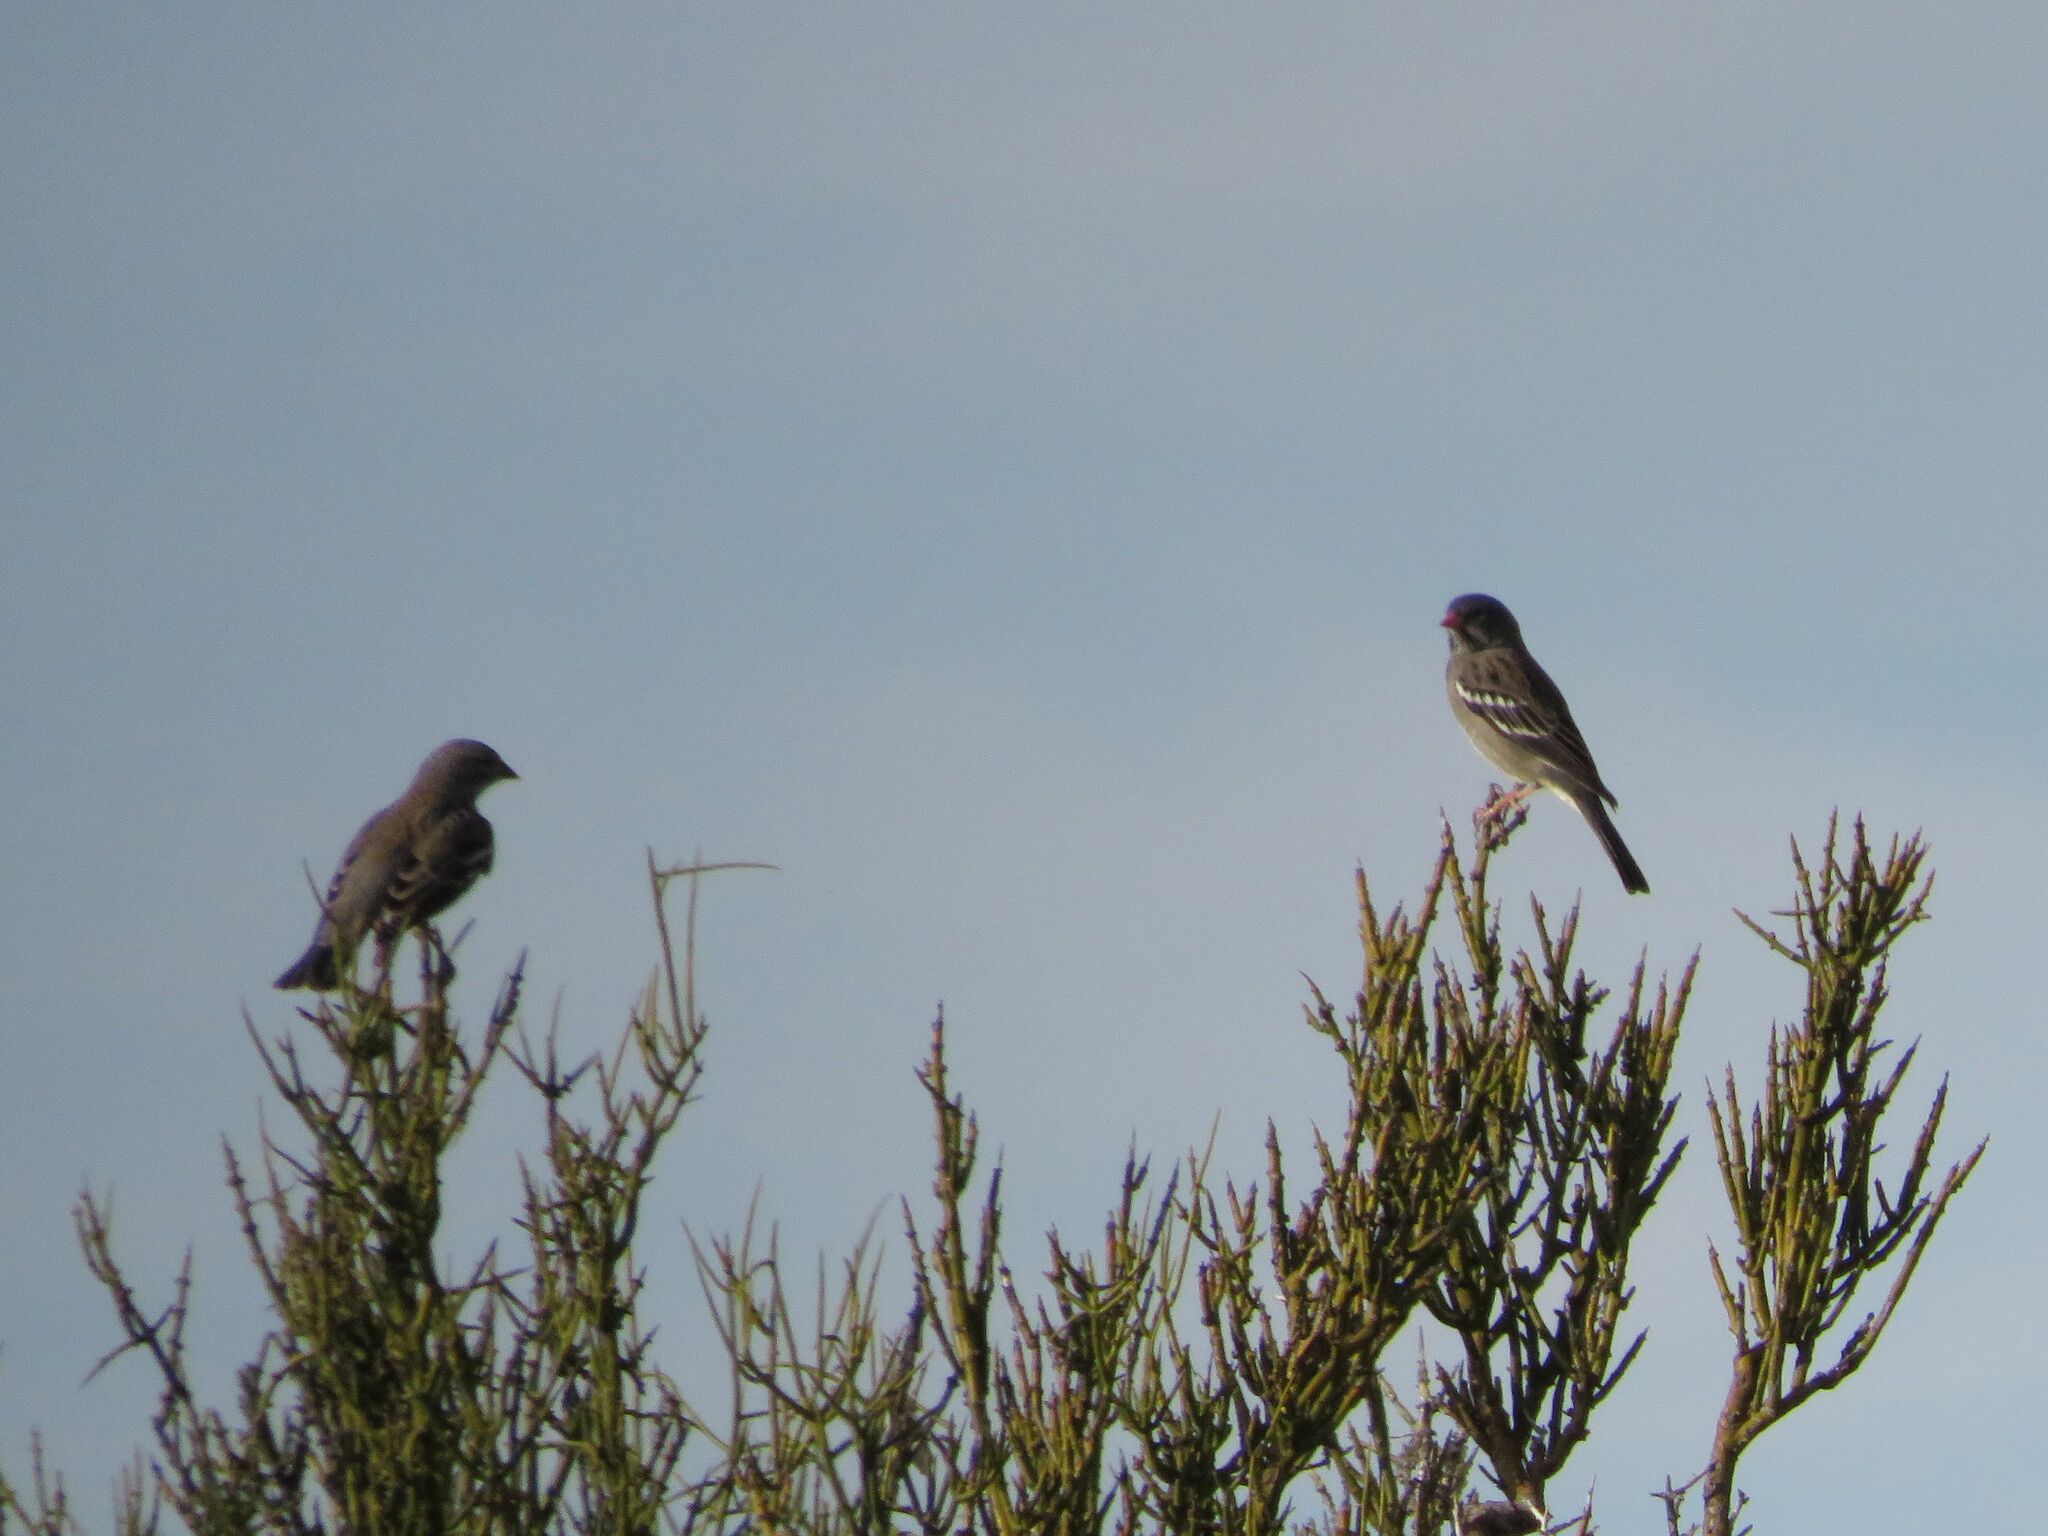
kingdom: Animalia
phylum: Chordata
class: Aves
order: Passeriformes
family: Thraupidae
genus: Rhopospina
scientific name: Rhopospina fruticeti
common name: Mourning sierra finch
